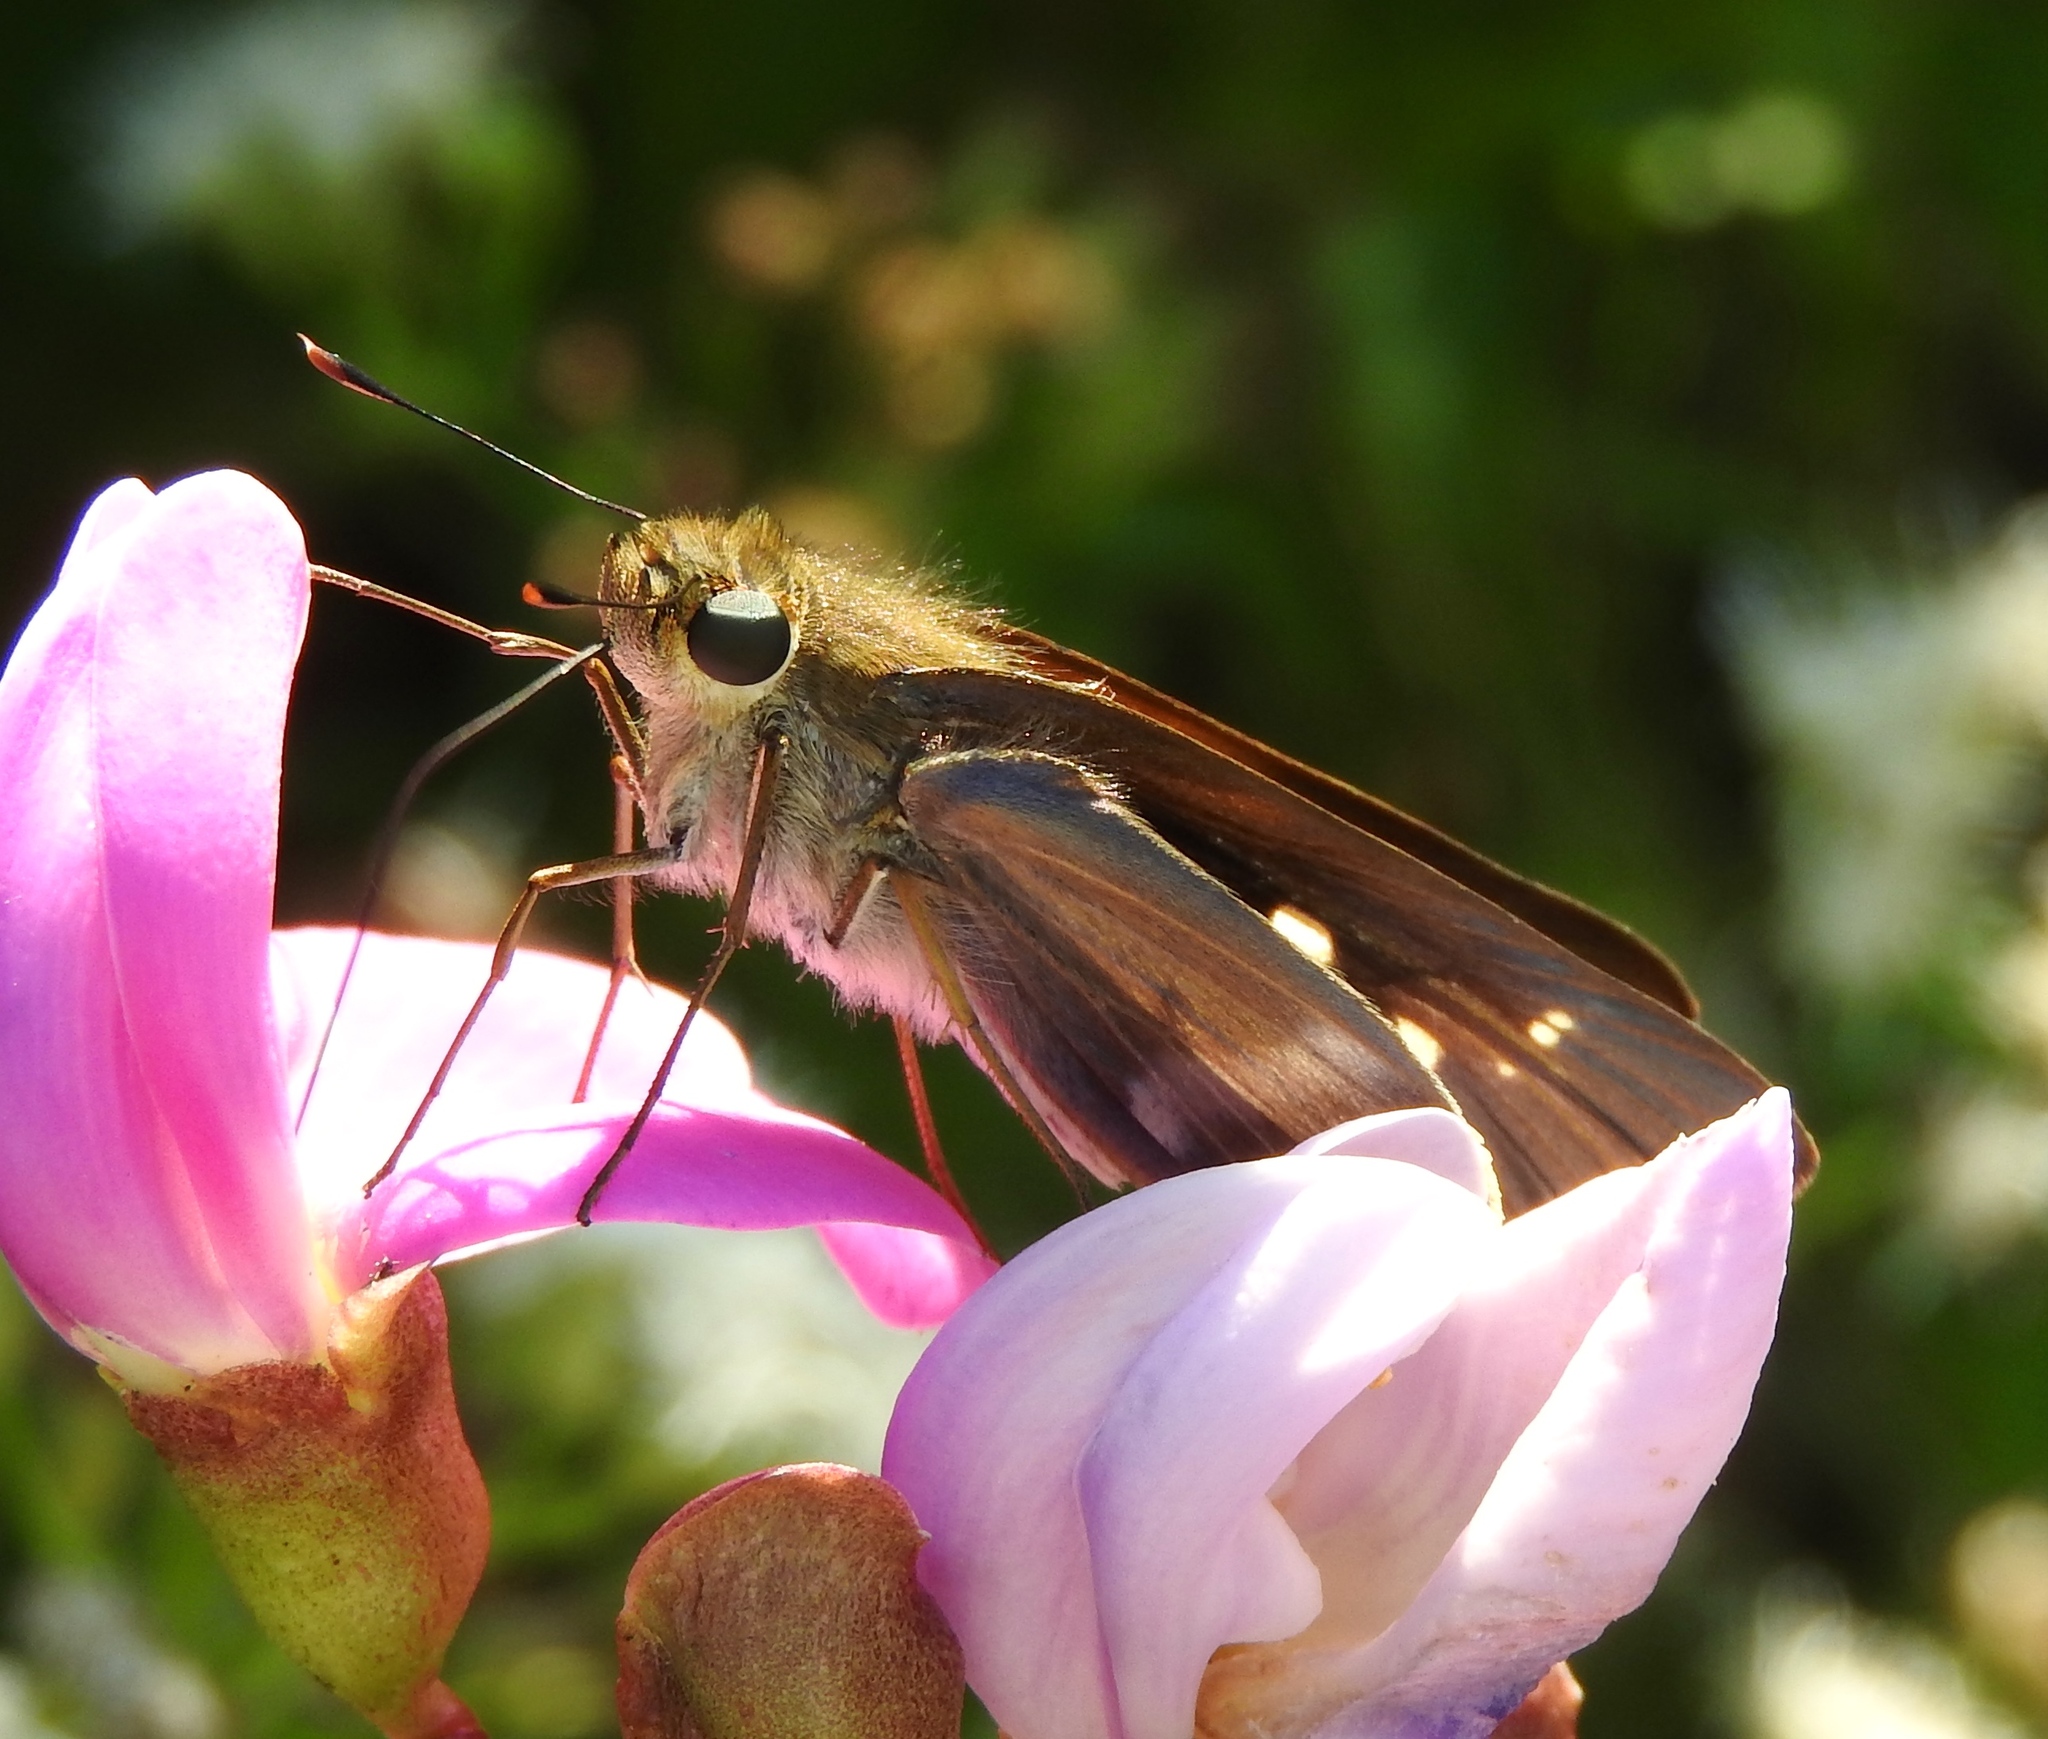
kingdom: Animalia
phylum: Arthropoda
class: Insecta
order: Lepidoptera
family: Hesperiidae
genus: Panoquina
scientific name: Panoquina
